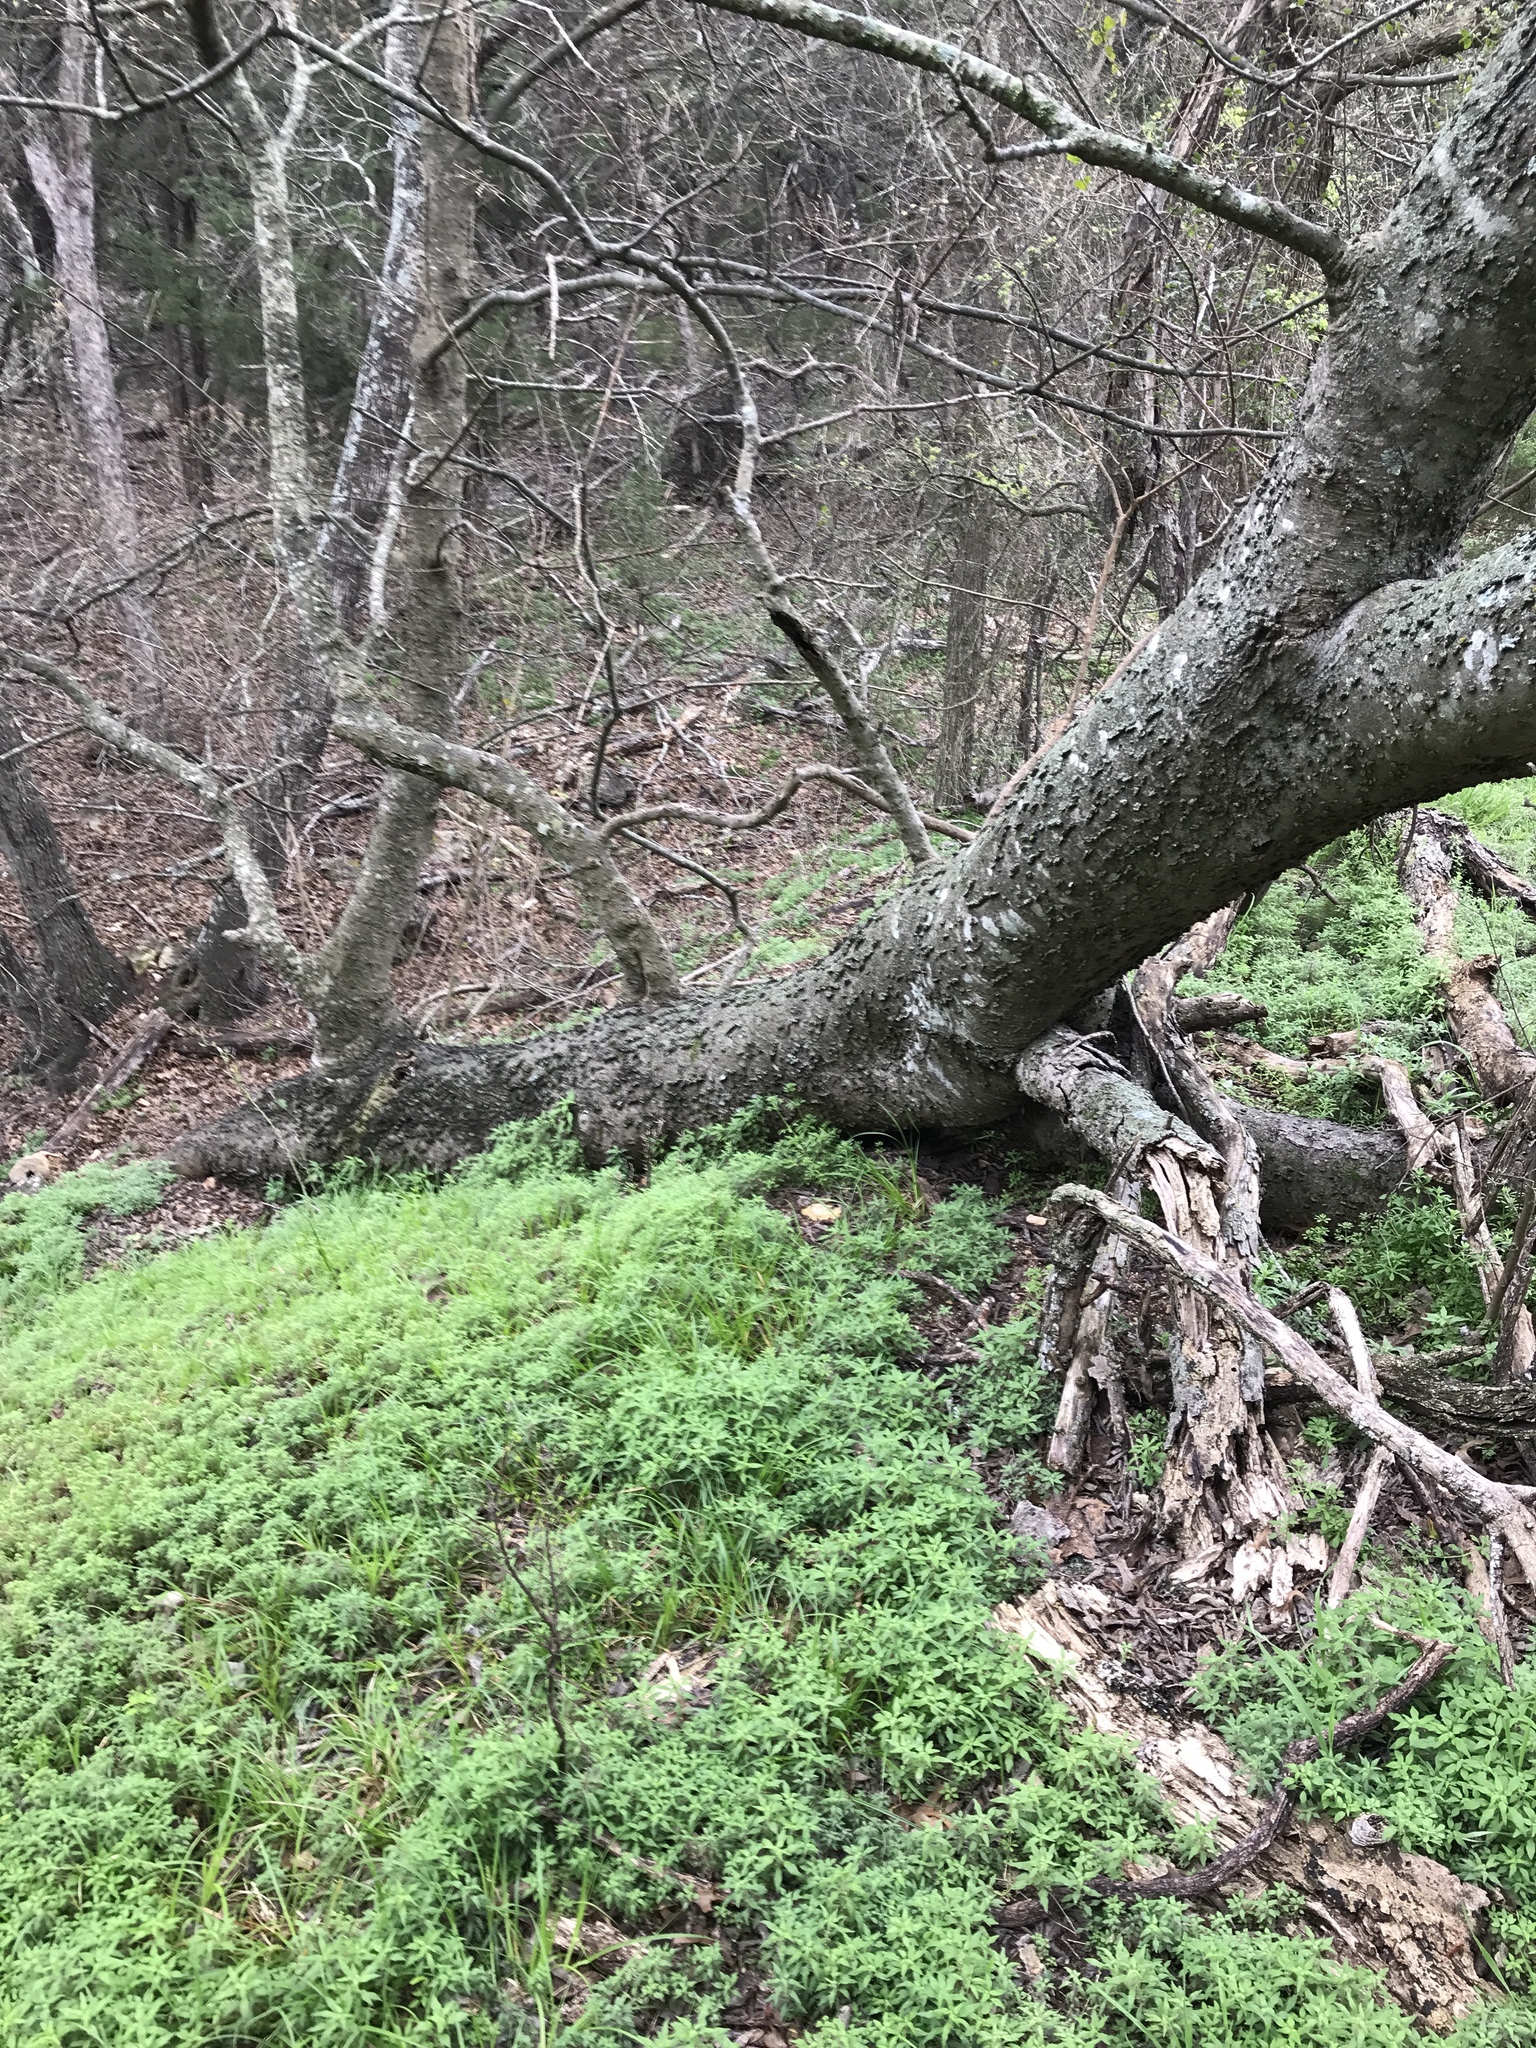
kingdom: Plantae
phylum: Tracheophyta
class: Magnoliopsida
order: Rosales
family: Cannabaceae
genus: Celtis
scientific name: Celtis laevigata
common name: Sugarberry
